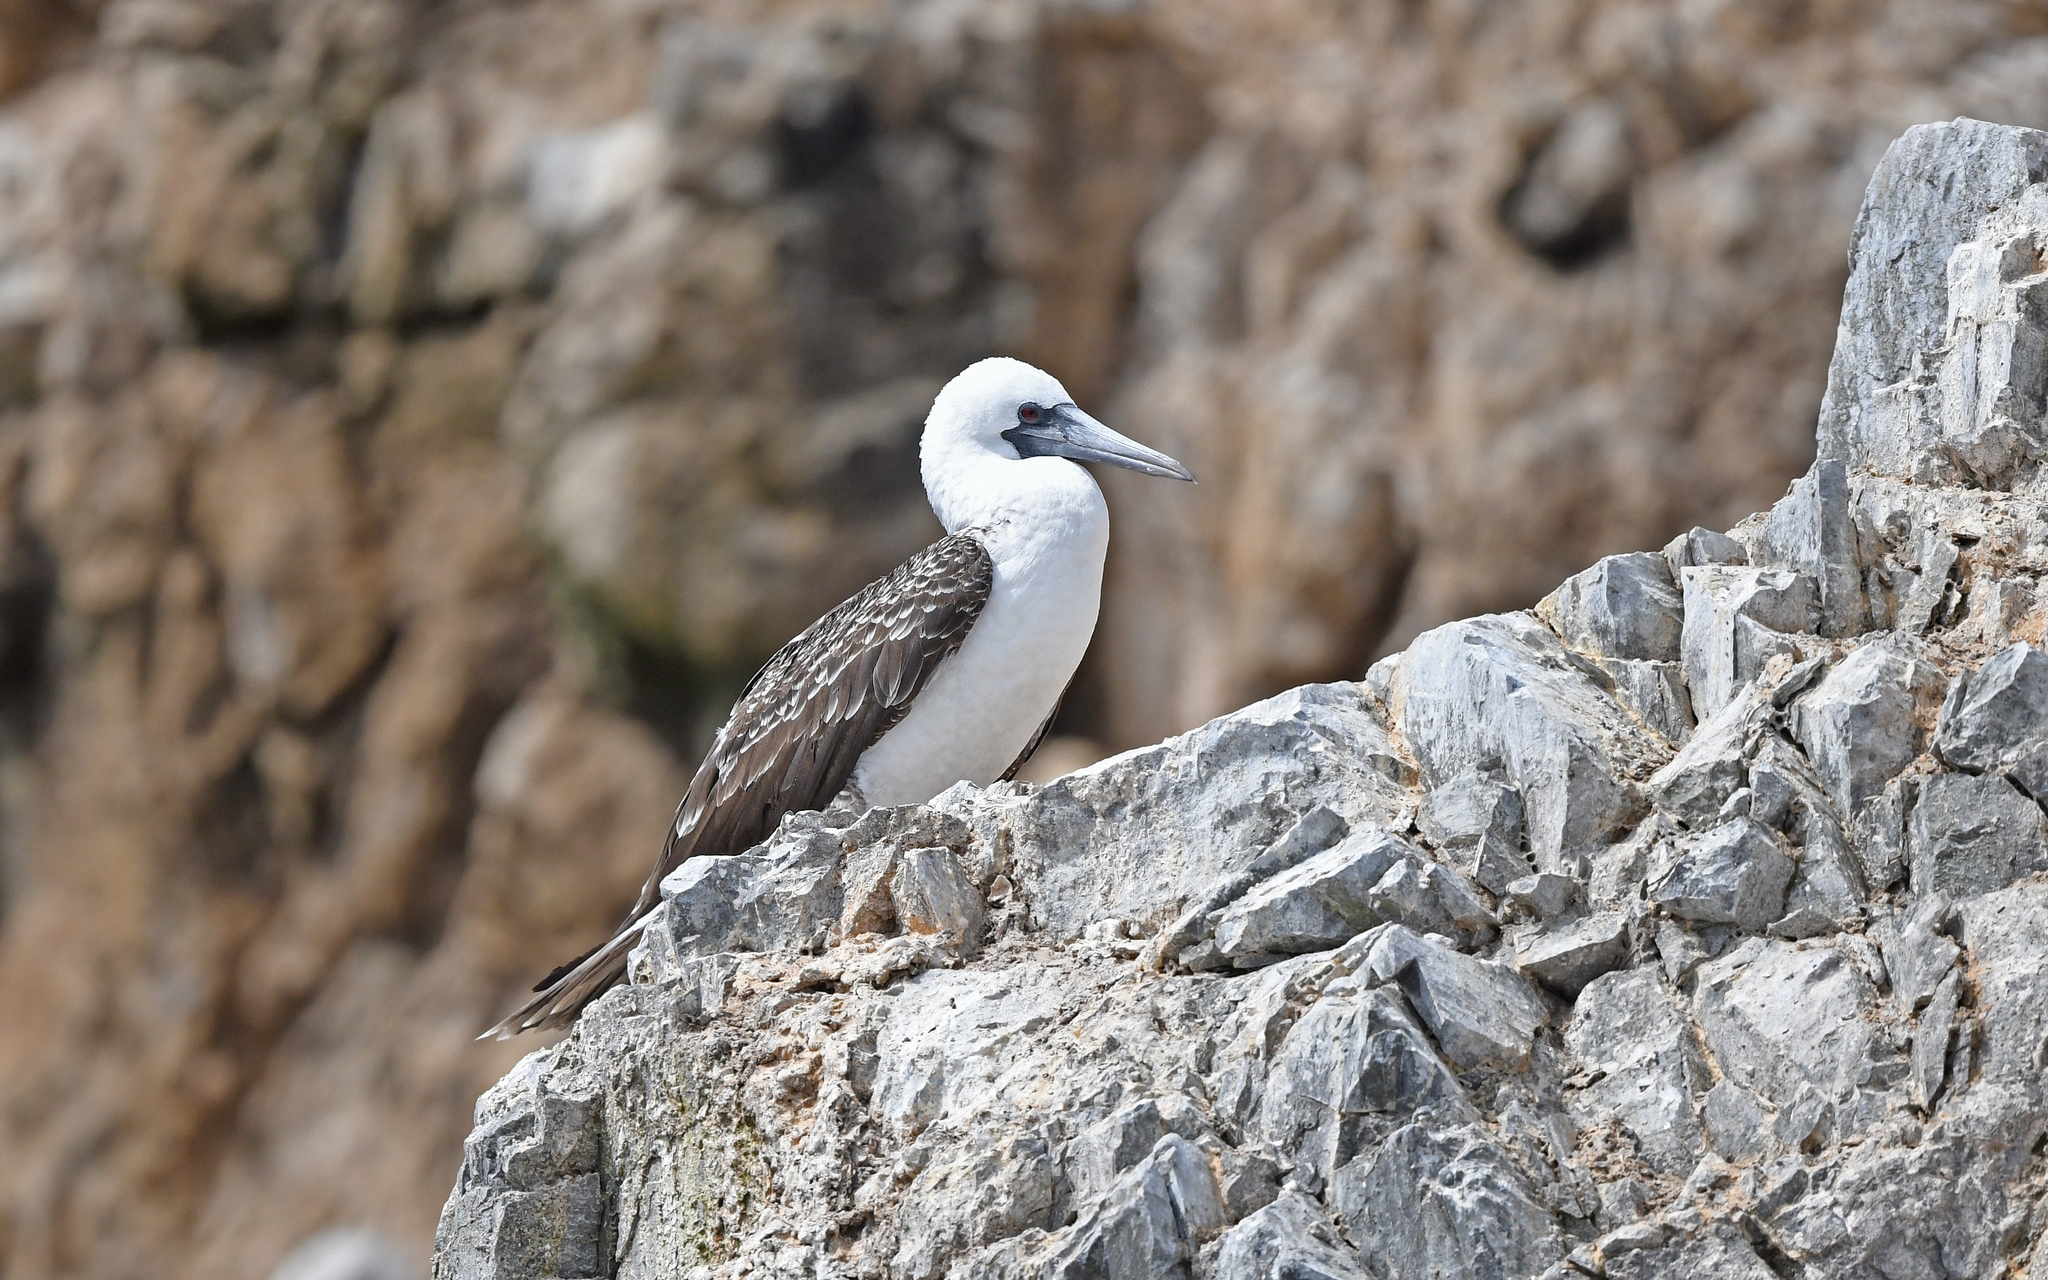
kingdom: Animalia
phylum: Chordata
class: Aves
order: Suliformes
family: Sulidae
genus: Sula
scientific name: Sula variegata
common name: Peruvian booby
